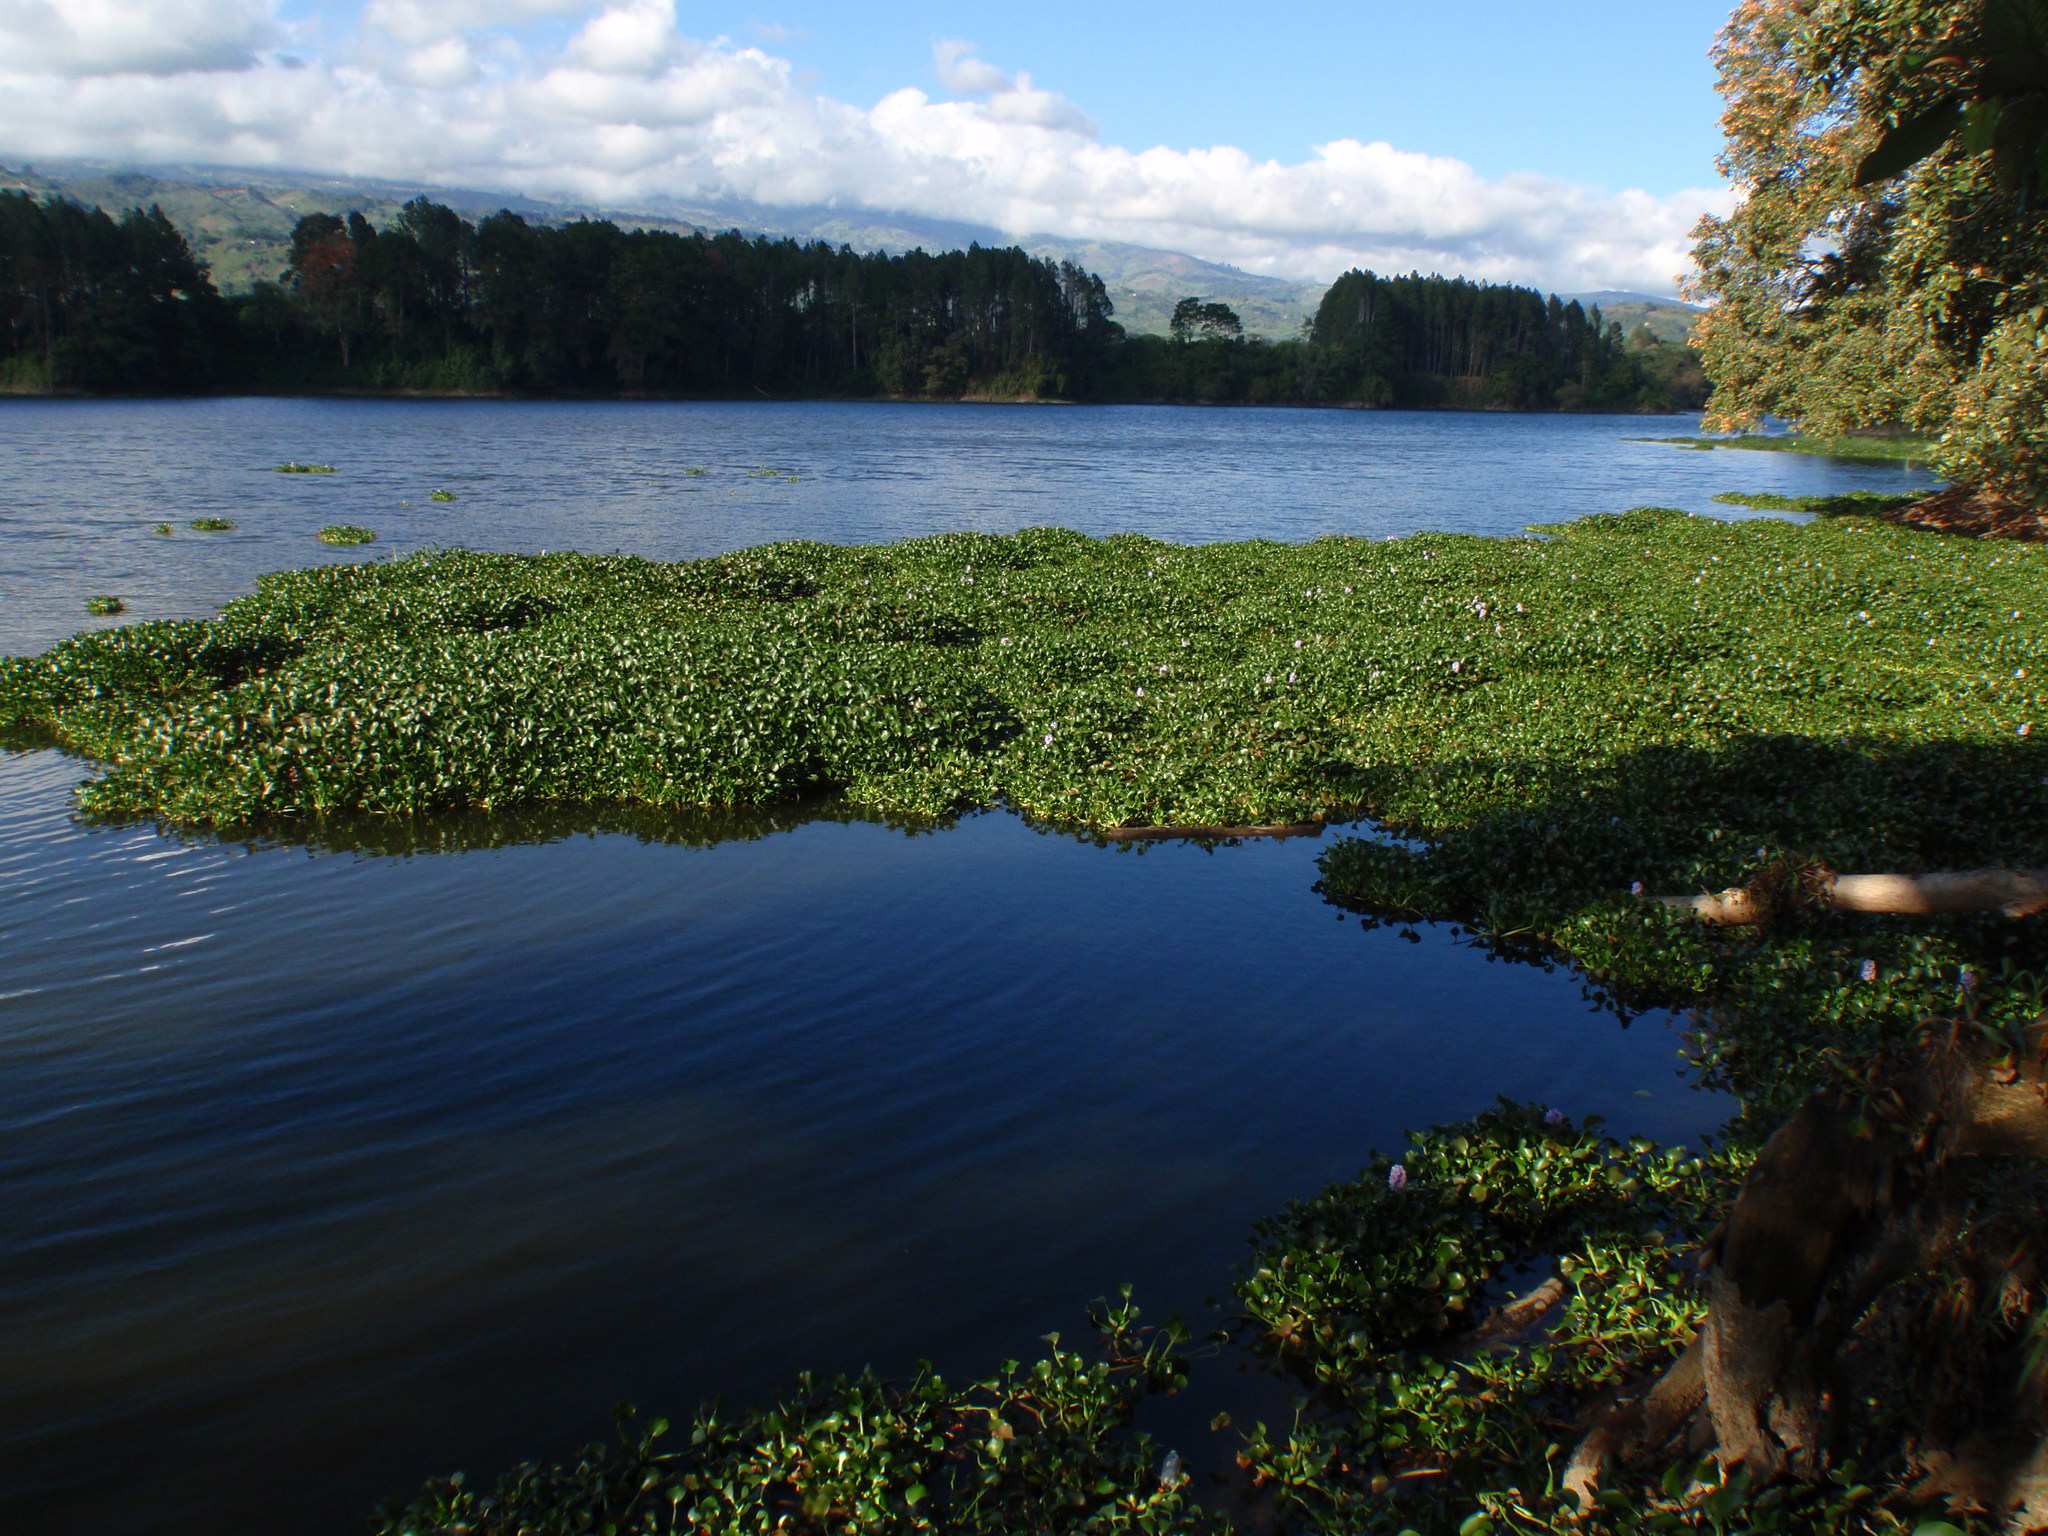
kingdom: Plantae
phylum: Tracheophyta
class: Liliopsida
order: Commelinales
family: Pontederiaceae
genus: Pontederia
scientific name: Pontederia crassipes
